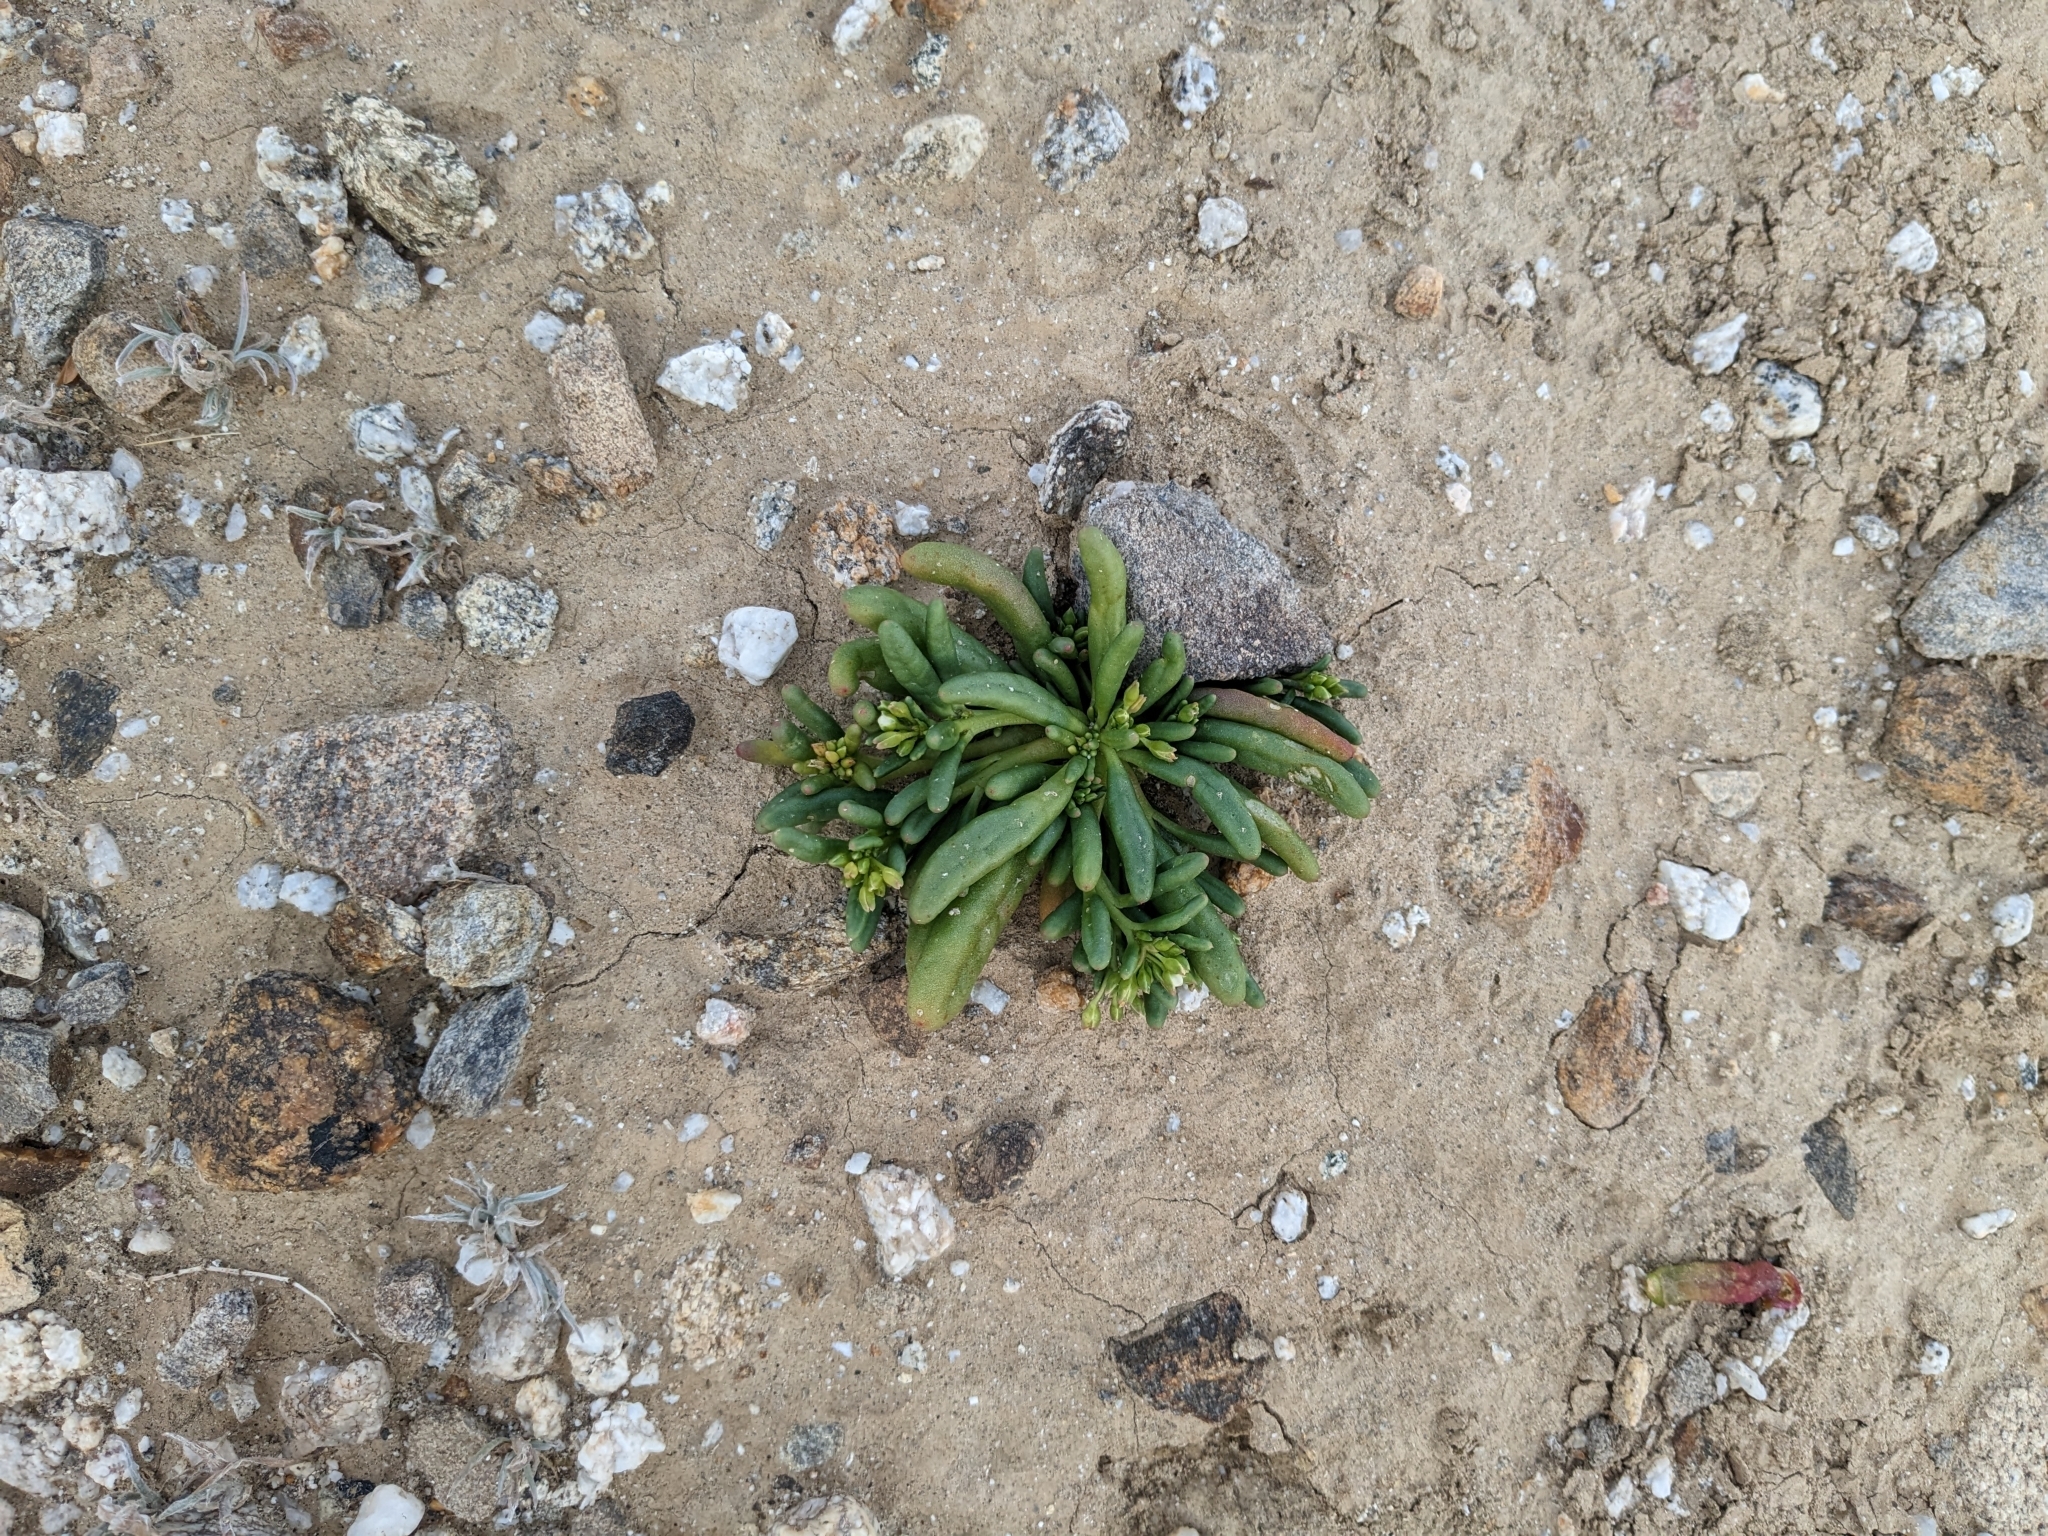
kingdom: Plantae
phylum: Tracheophyta
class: Magnoliopsida
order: Caryophyllales
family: Montiaceae
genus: Thingia
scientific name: Thingia ambigua
